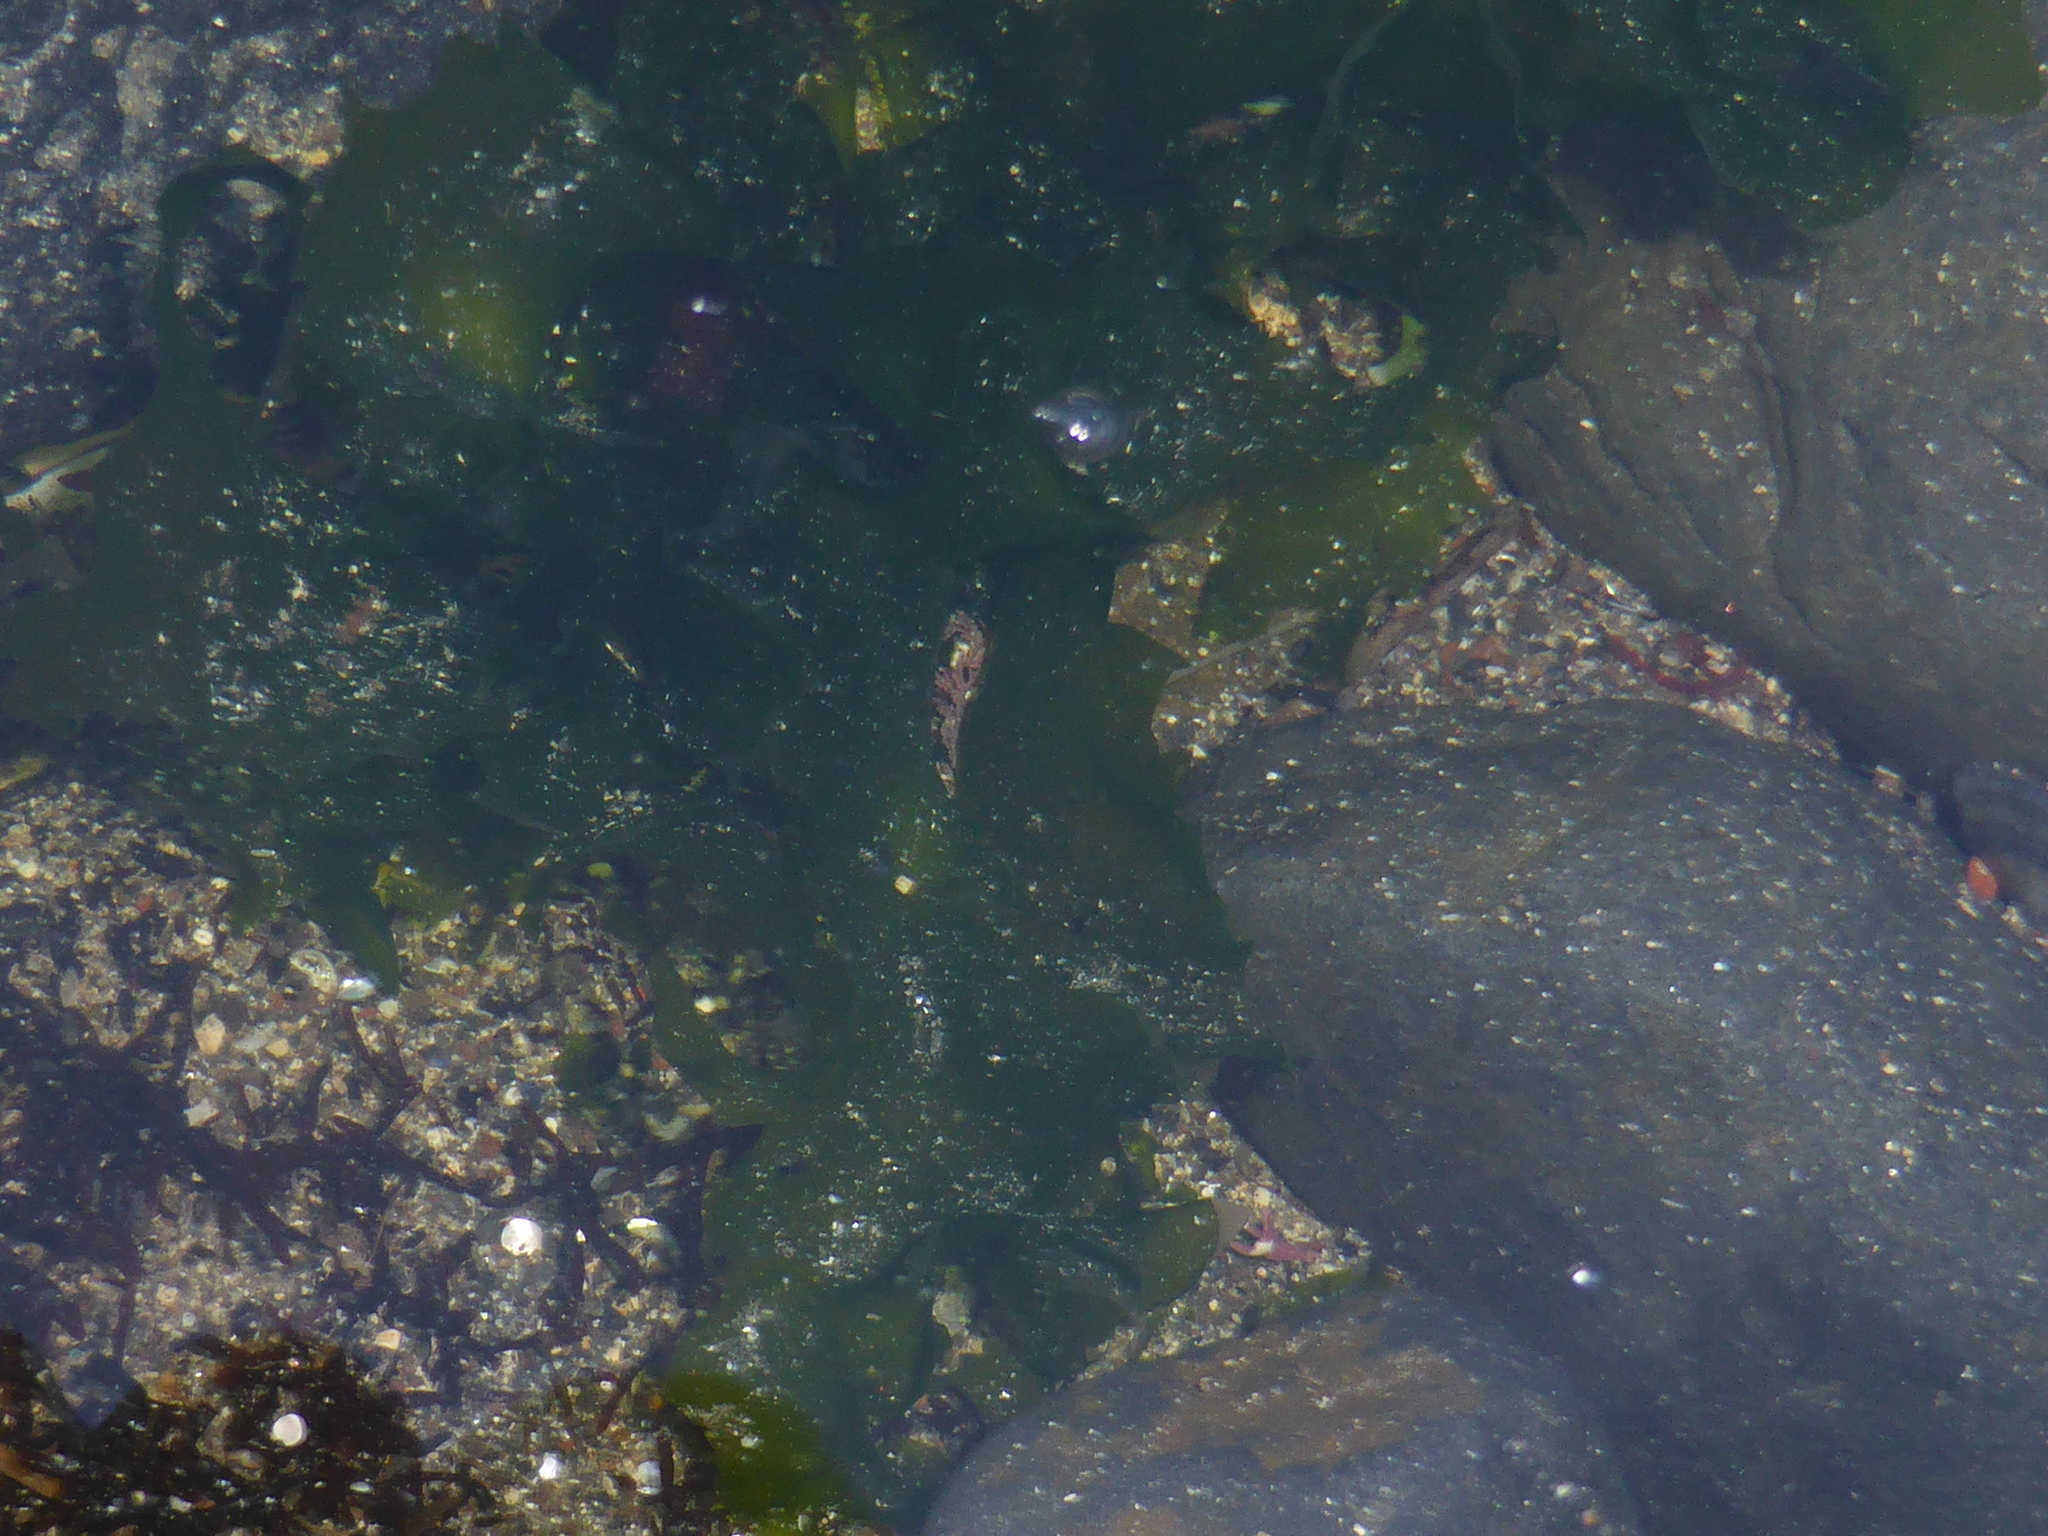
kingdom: Plantae
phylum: Chlorophyta
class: Ulvophyceae
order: Ulvales
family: Ulvaceae
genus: Ulva
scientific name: Ulva
